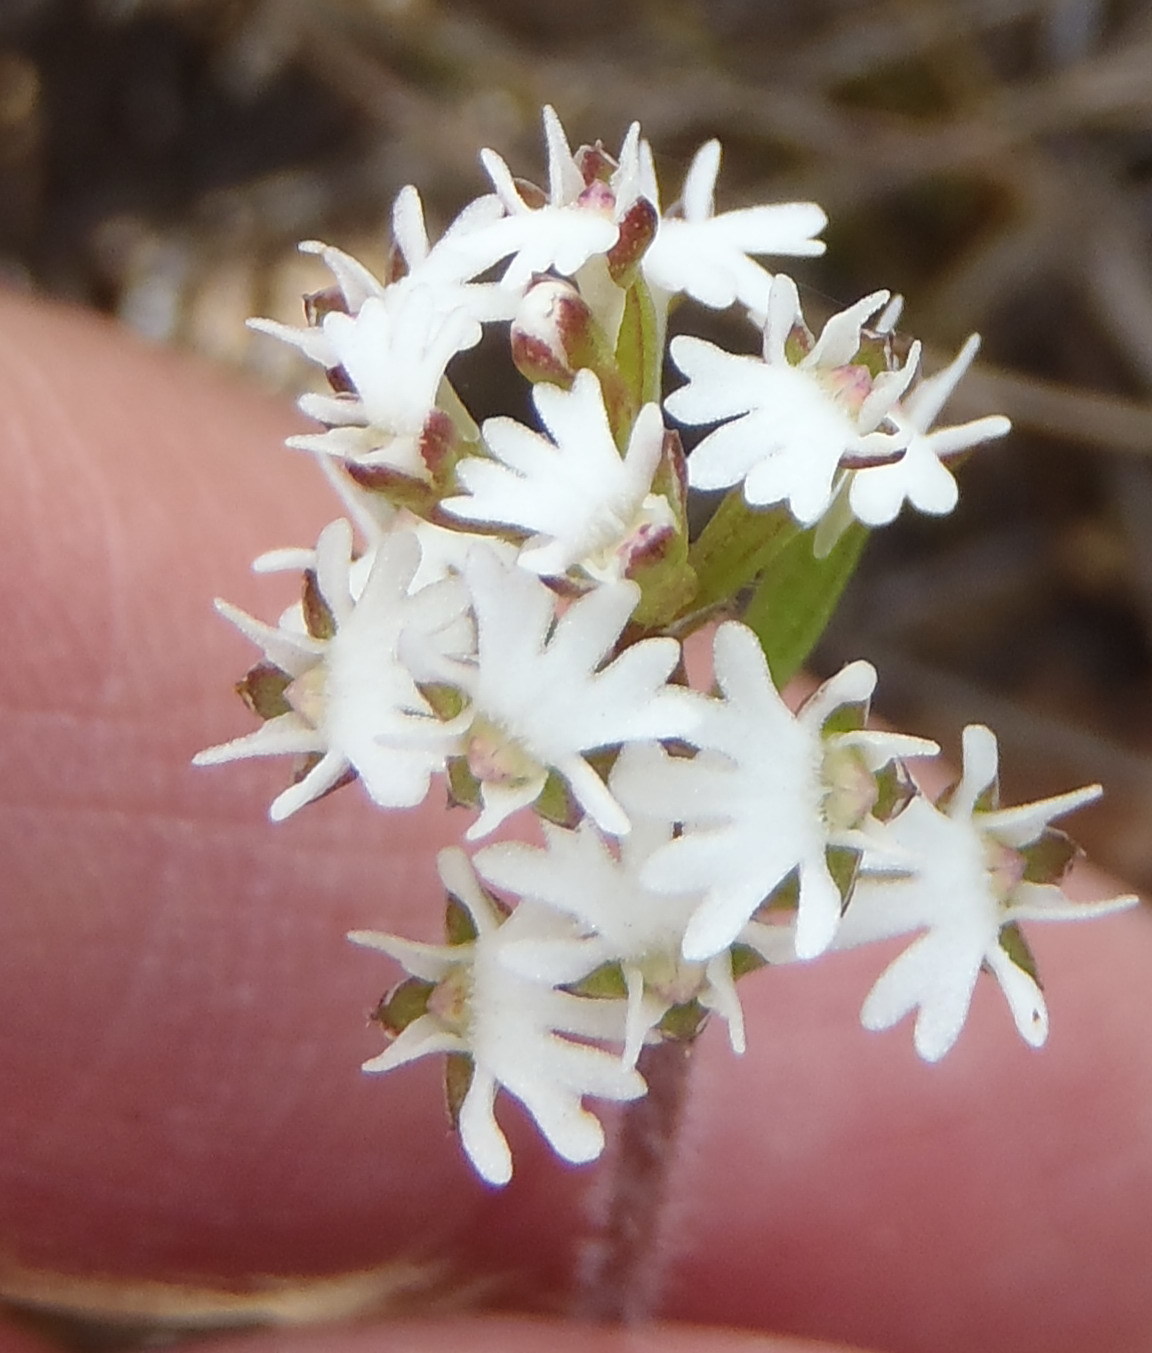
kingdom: Plantae
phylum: Tracheophyta
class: Liliopsida
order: Asparagales
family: Orchidaceae
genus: Holothrix
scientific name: Holothrix mundii
